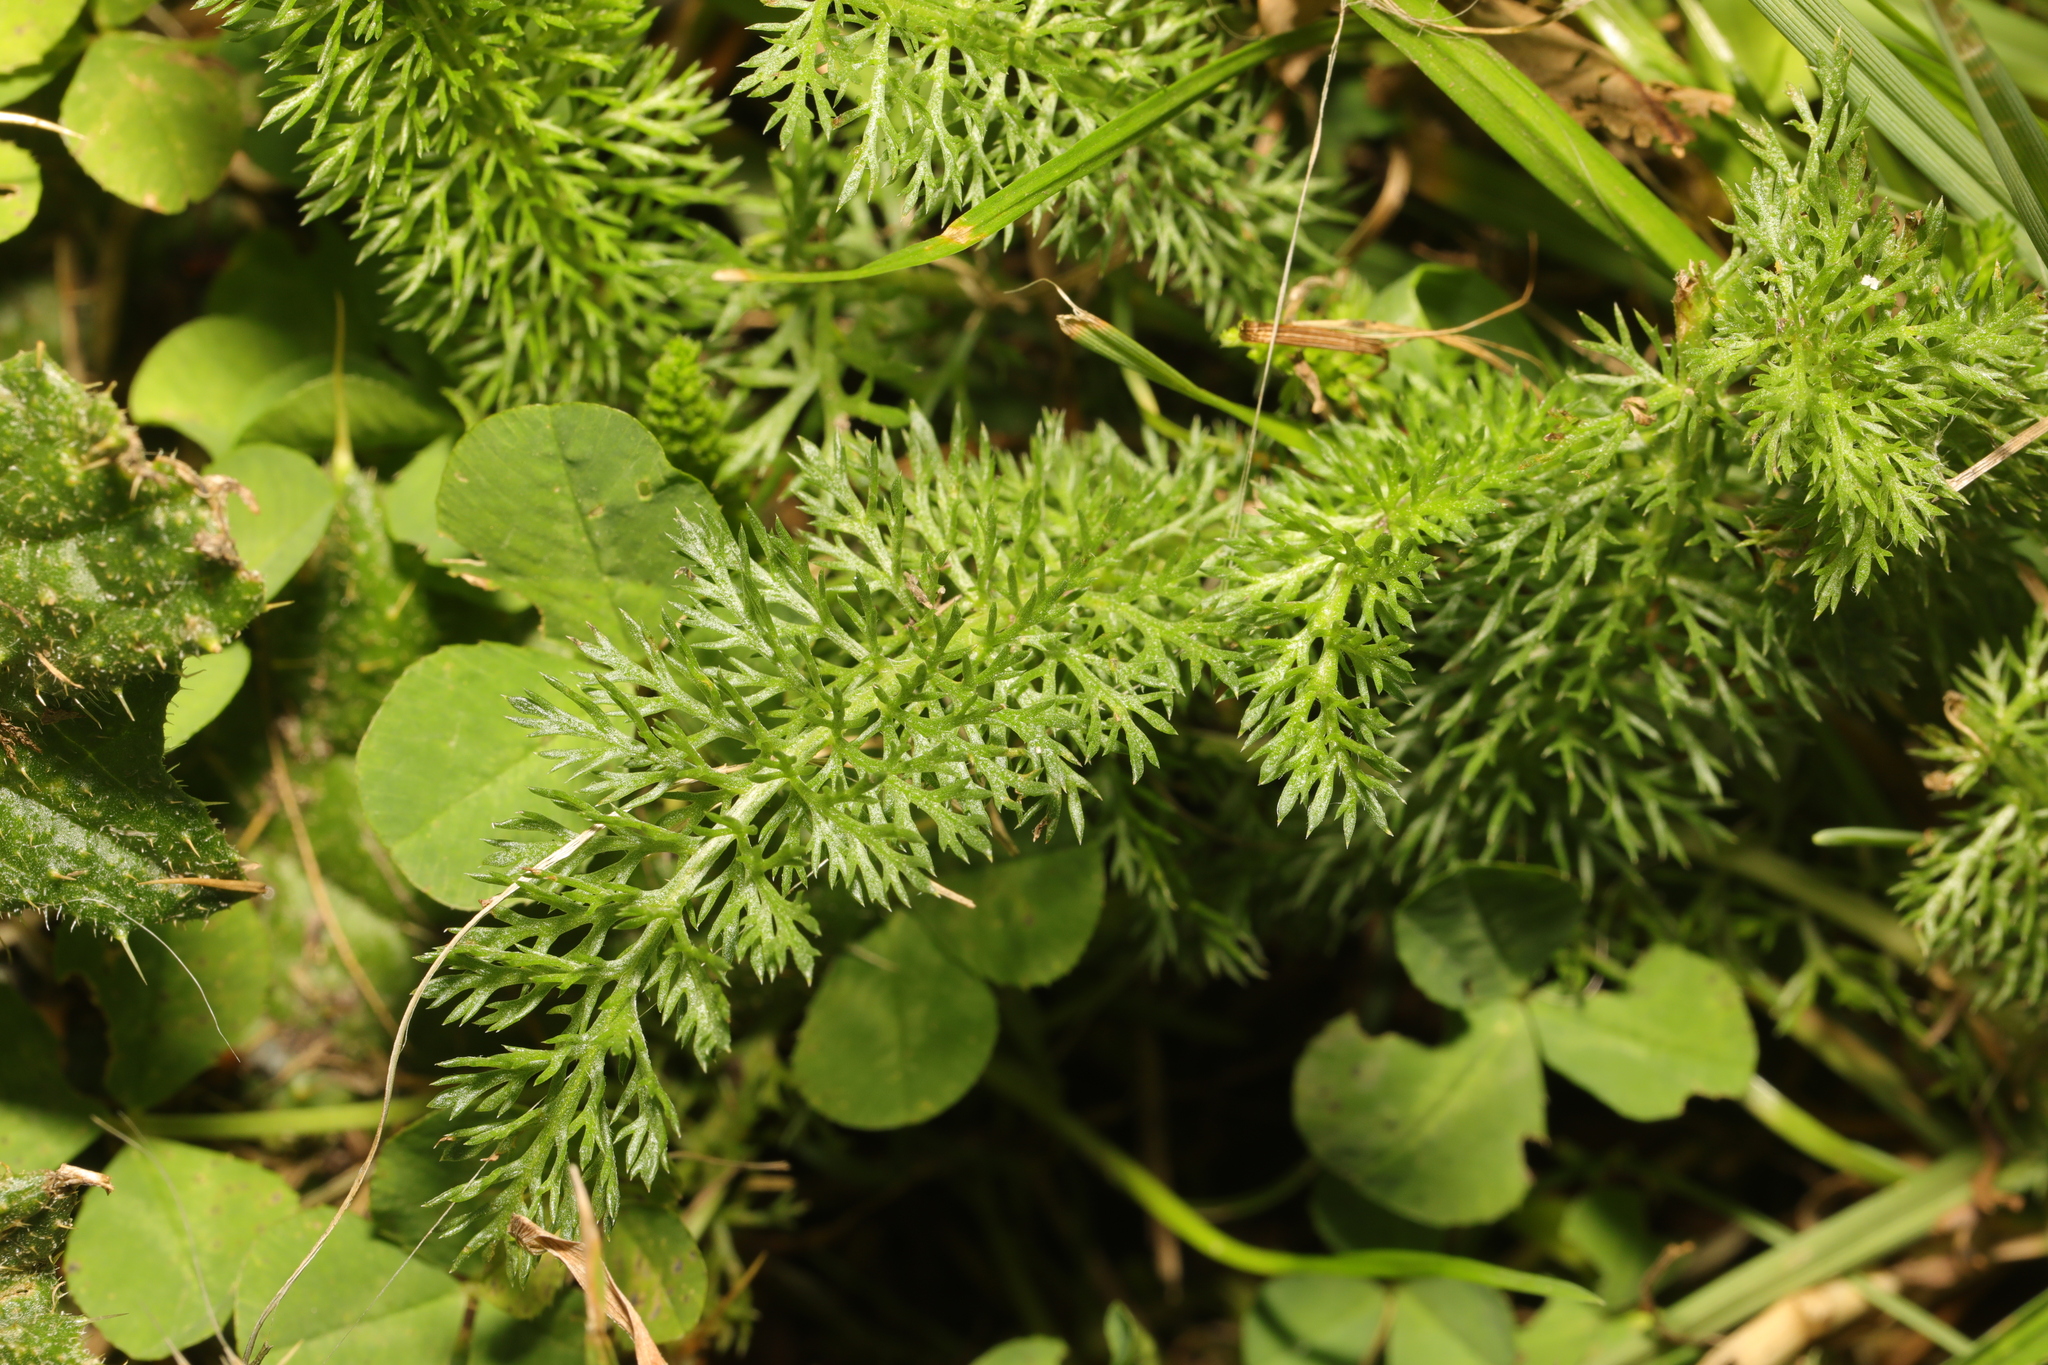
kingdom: Plantae
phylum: Tracheophyta
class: Magnoliopsida
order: Asterales
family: Asteraceae
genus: Achillea
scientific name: Achillea millefolium
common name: Yarrow
